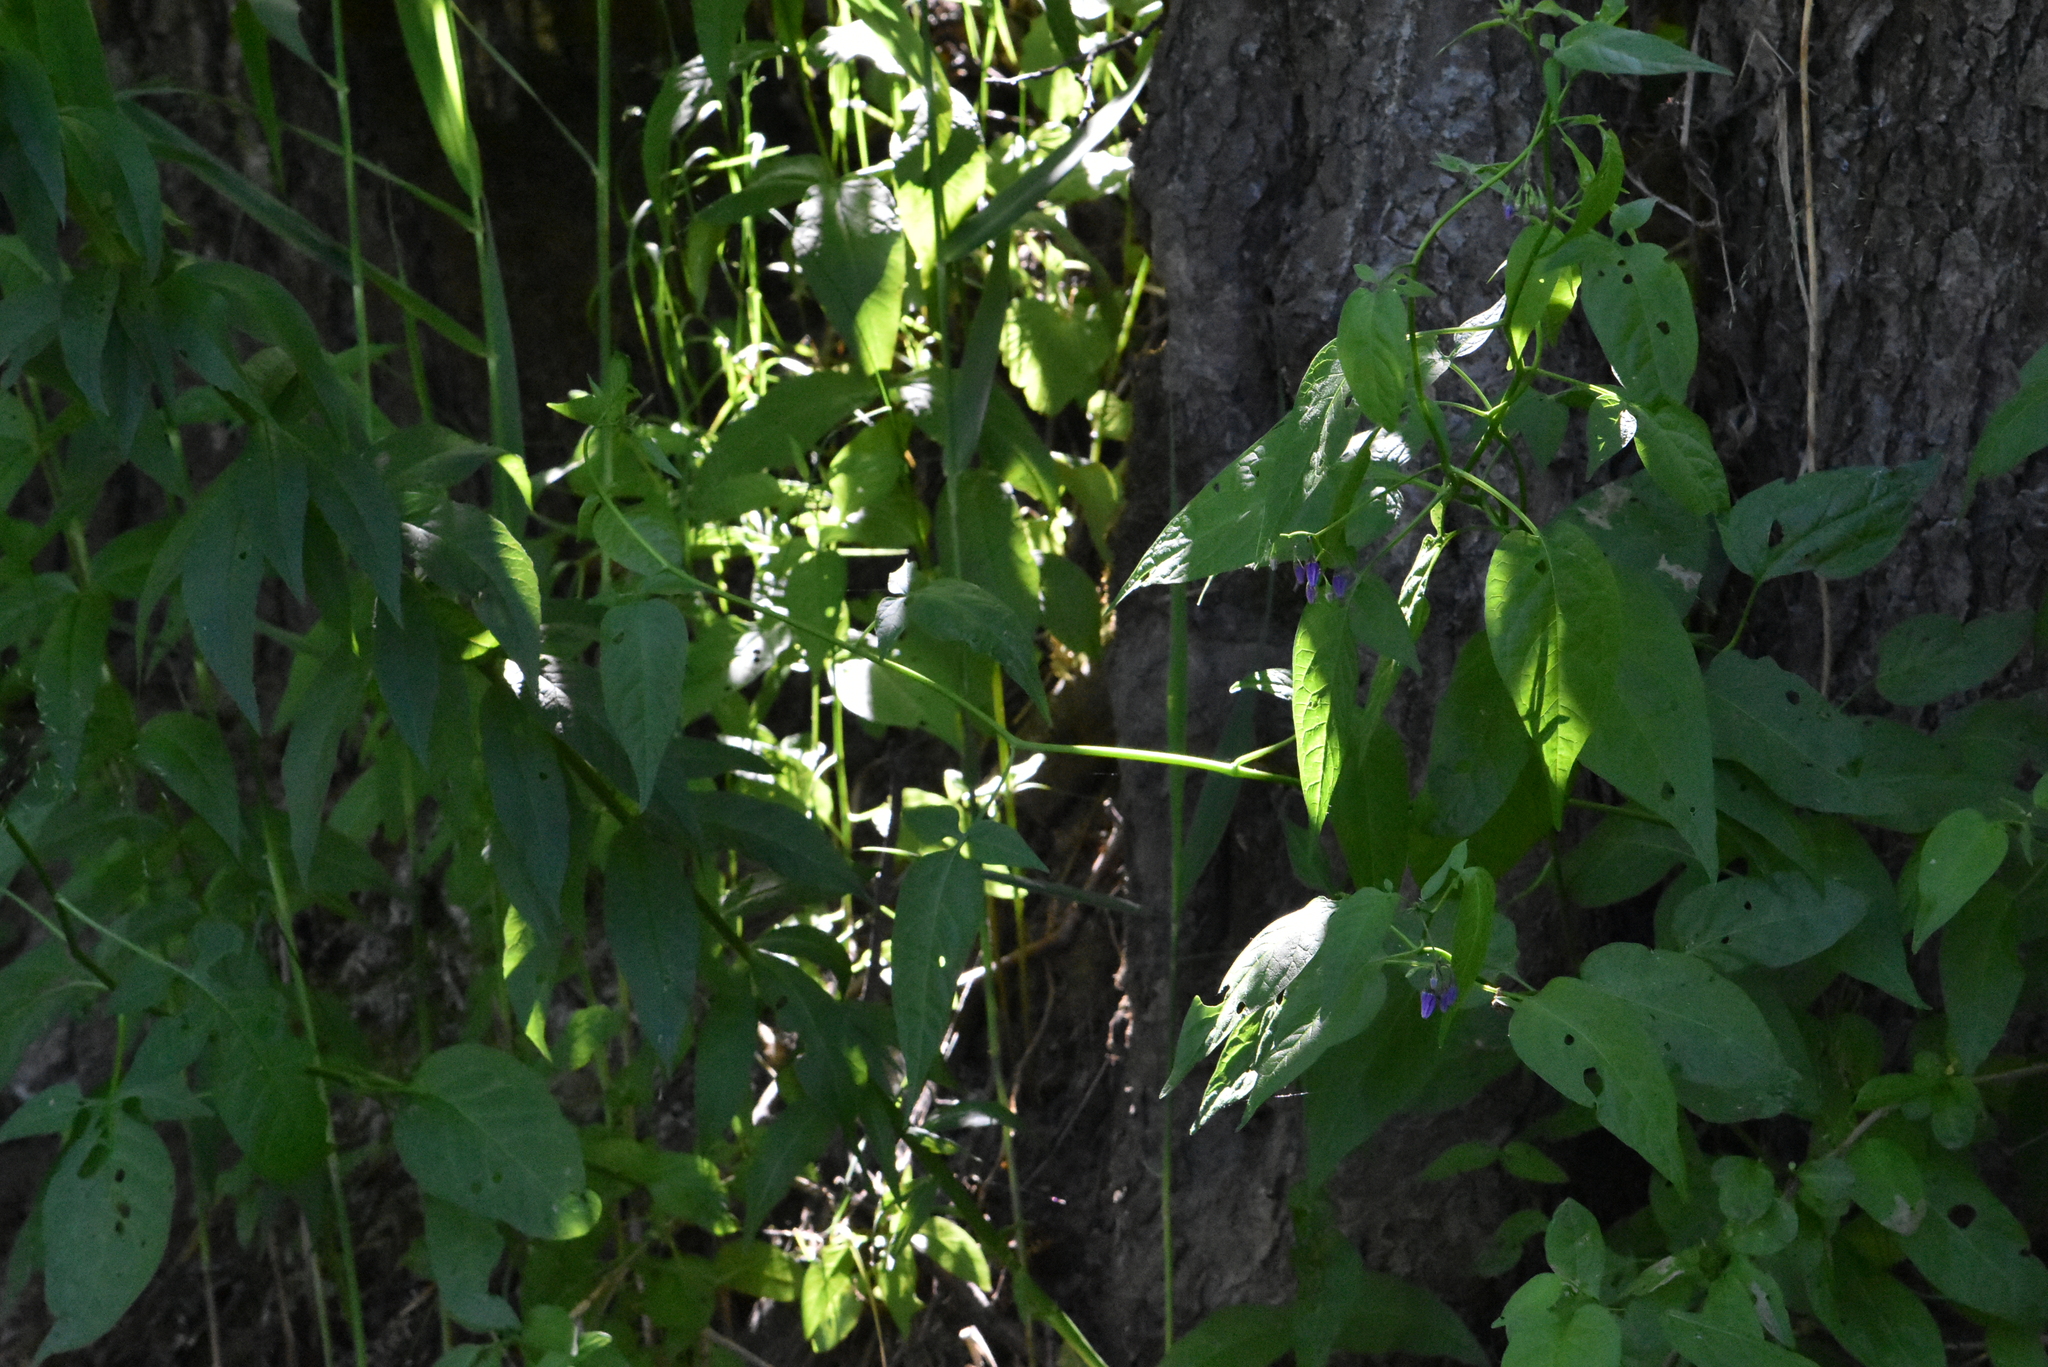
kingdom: Plantae
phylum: Tracheophyta
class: Magnoliopsida
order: Solanales
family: Solanaceae
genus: Solanum
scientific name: Solanum dulcamara
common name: Climbing nightshade
